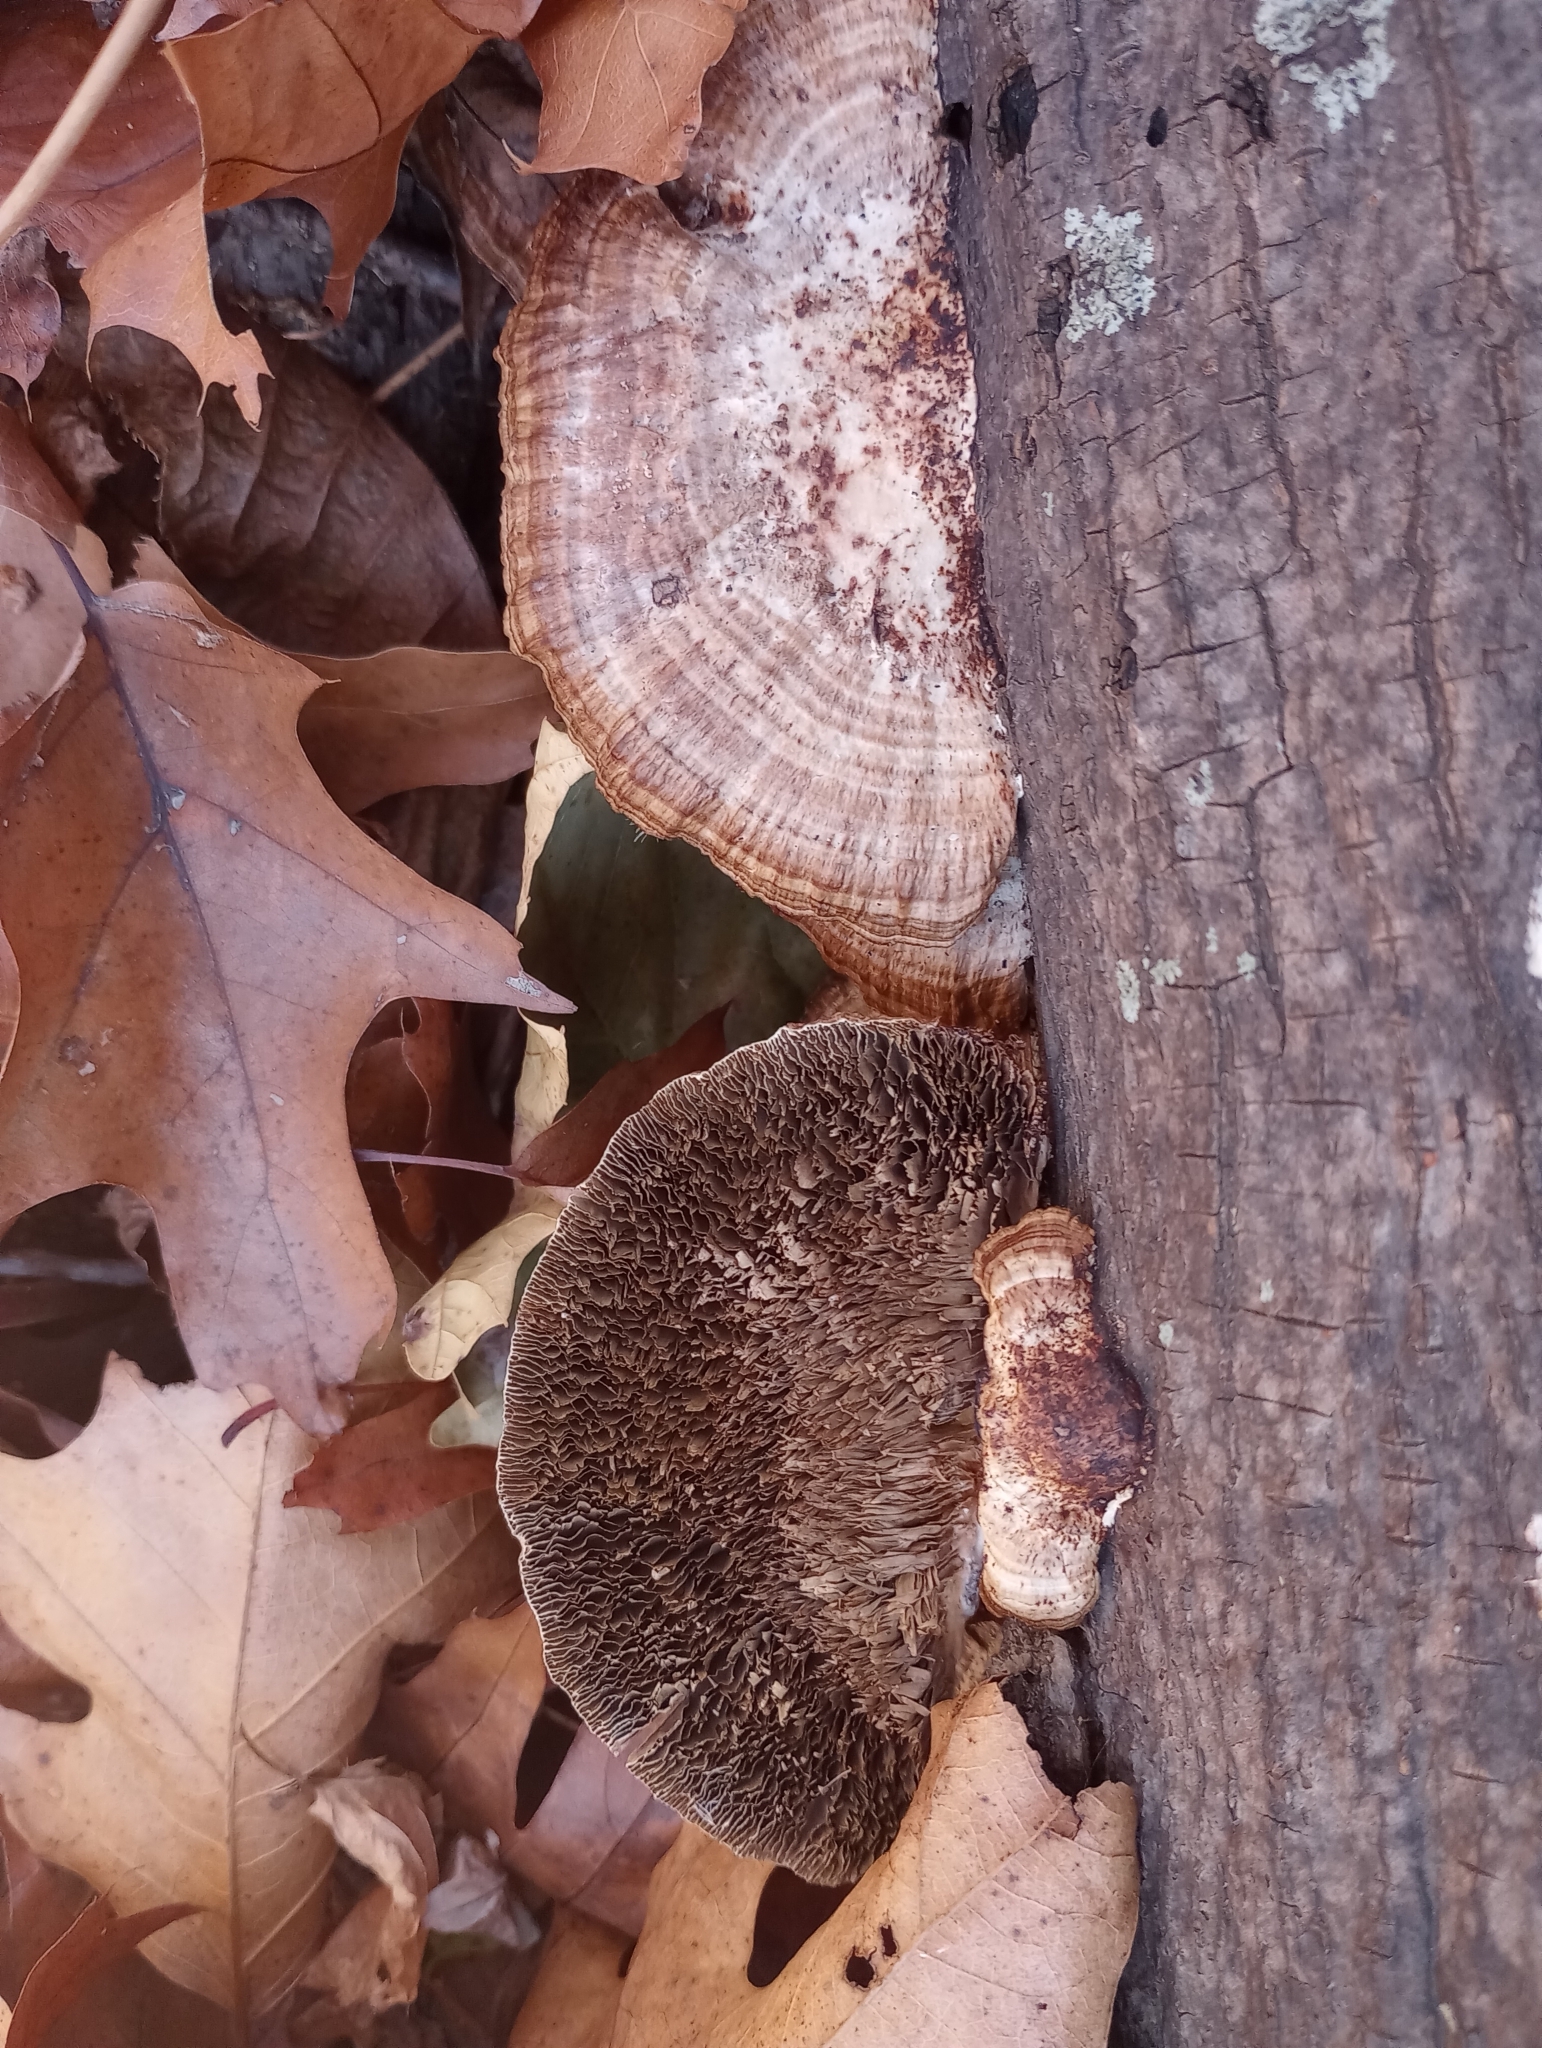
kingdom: Fungi
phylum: Basidiomycota
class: Agaricomycetes
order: Polyporales
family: Polyporaceae
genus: Daedaleopsis
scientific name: Daedaleopsis confragosa
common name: Blushing bracket
